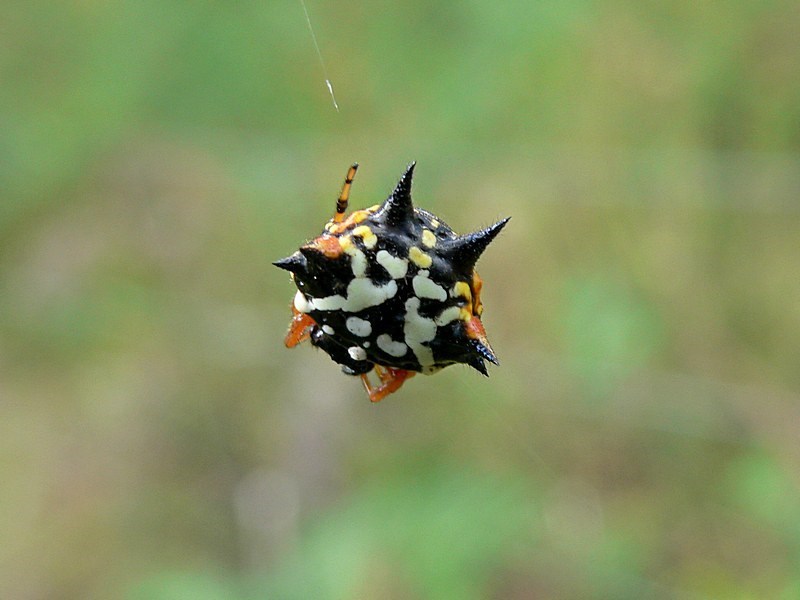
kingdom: Animalia
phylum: Arthropoda
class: Arachnida
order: Araneae
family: Araneidae
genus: Austracantha
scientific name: Austracantha minax
